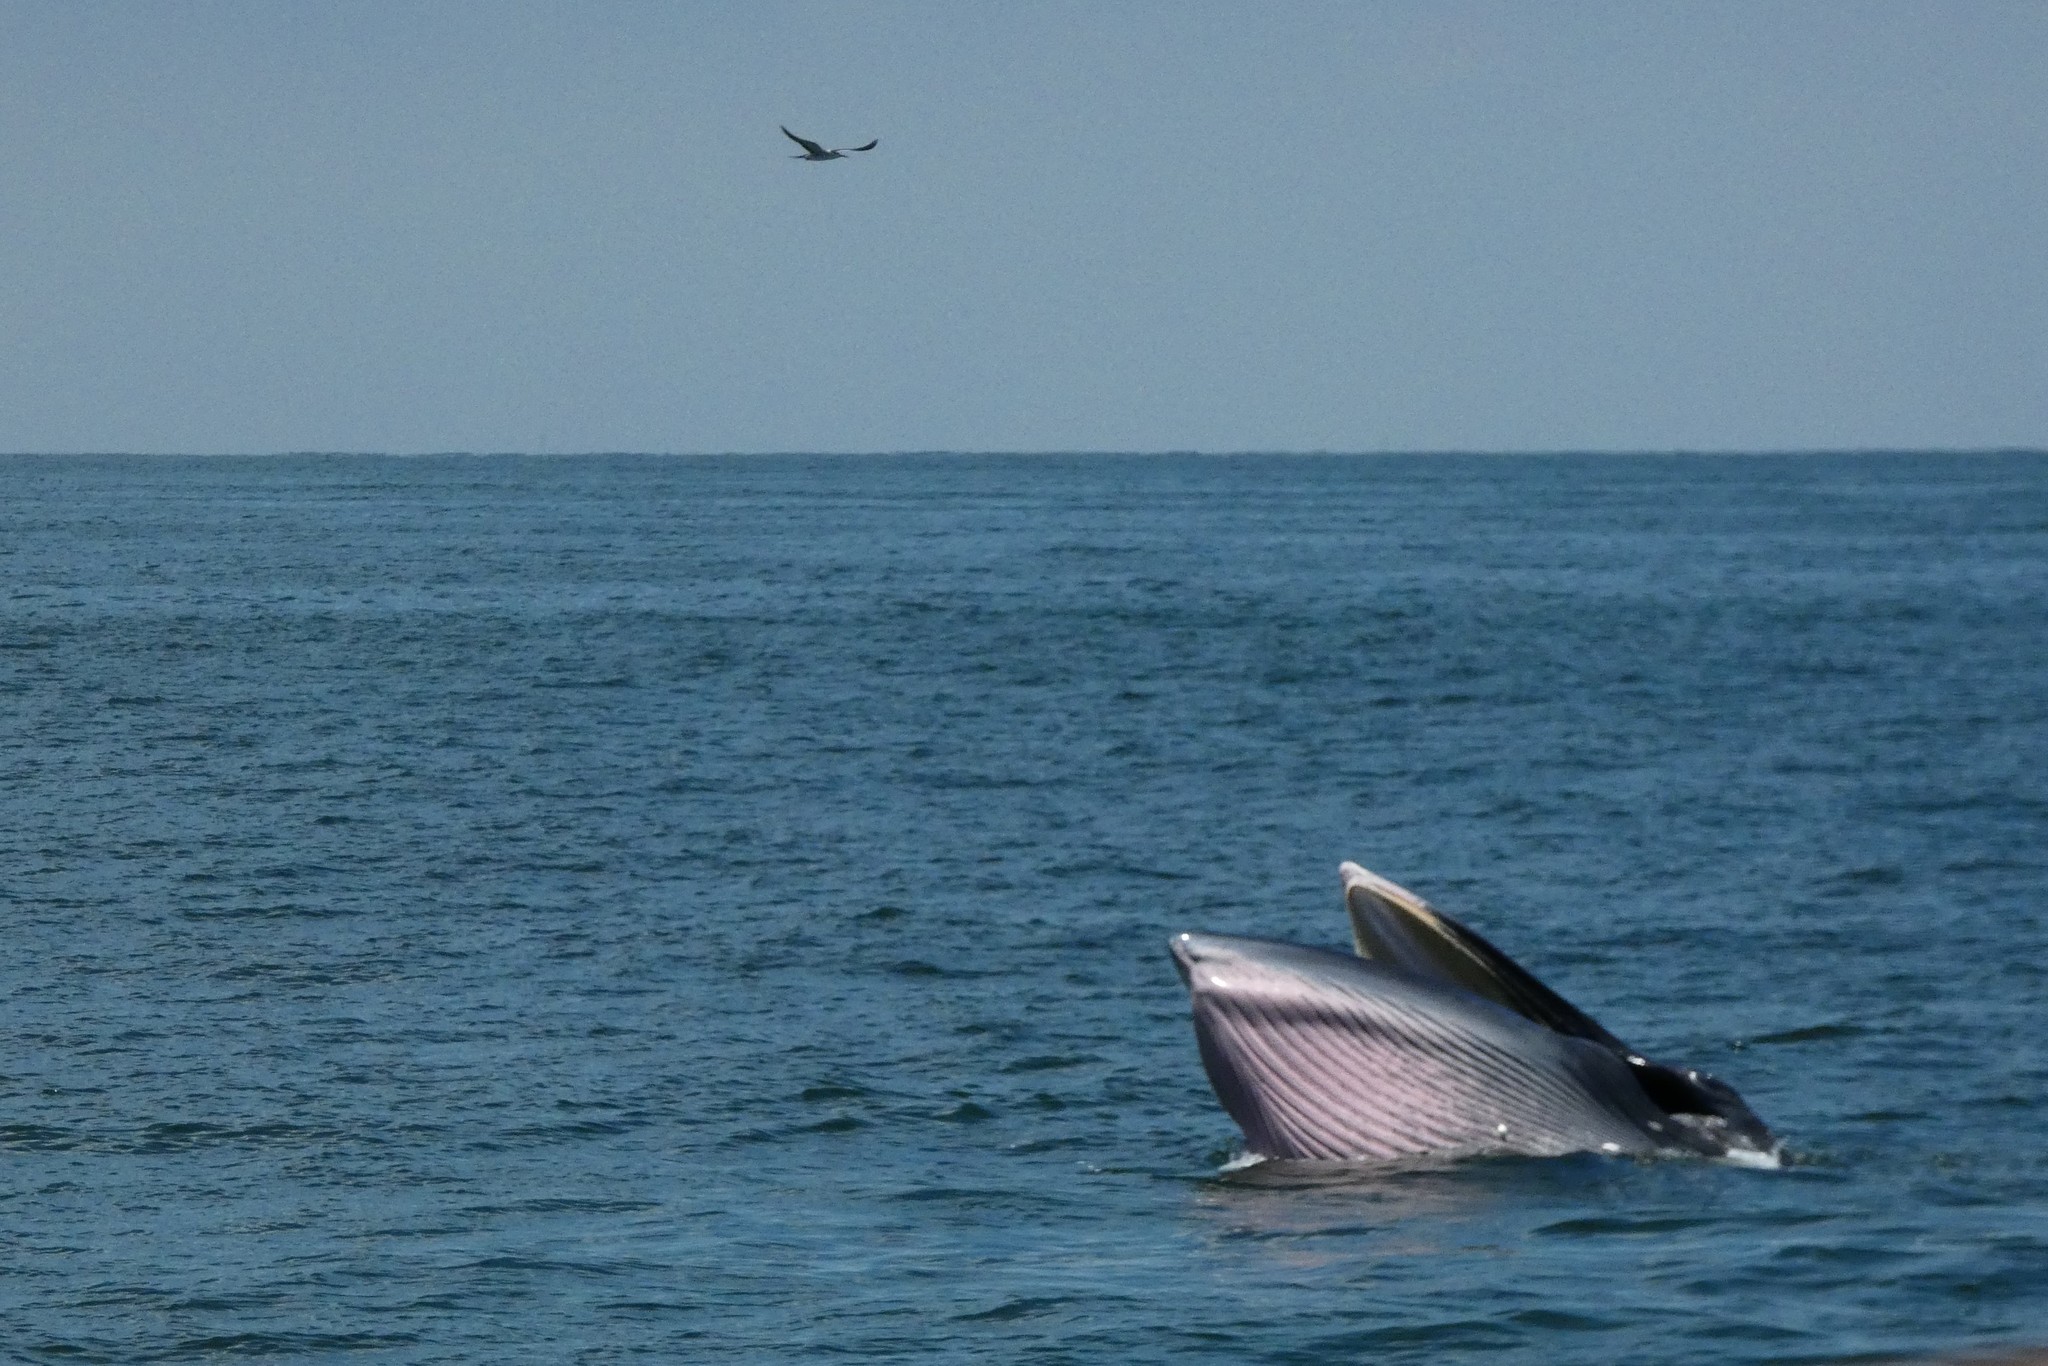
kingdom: Animalia
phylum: Chordata
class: Mammalia
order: Cetacea
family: Balaenopteridae
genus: Balaenoptera
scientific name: Balaenoptera edeni
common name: Bryde's whale
